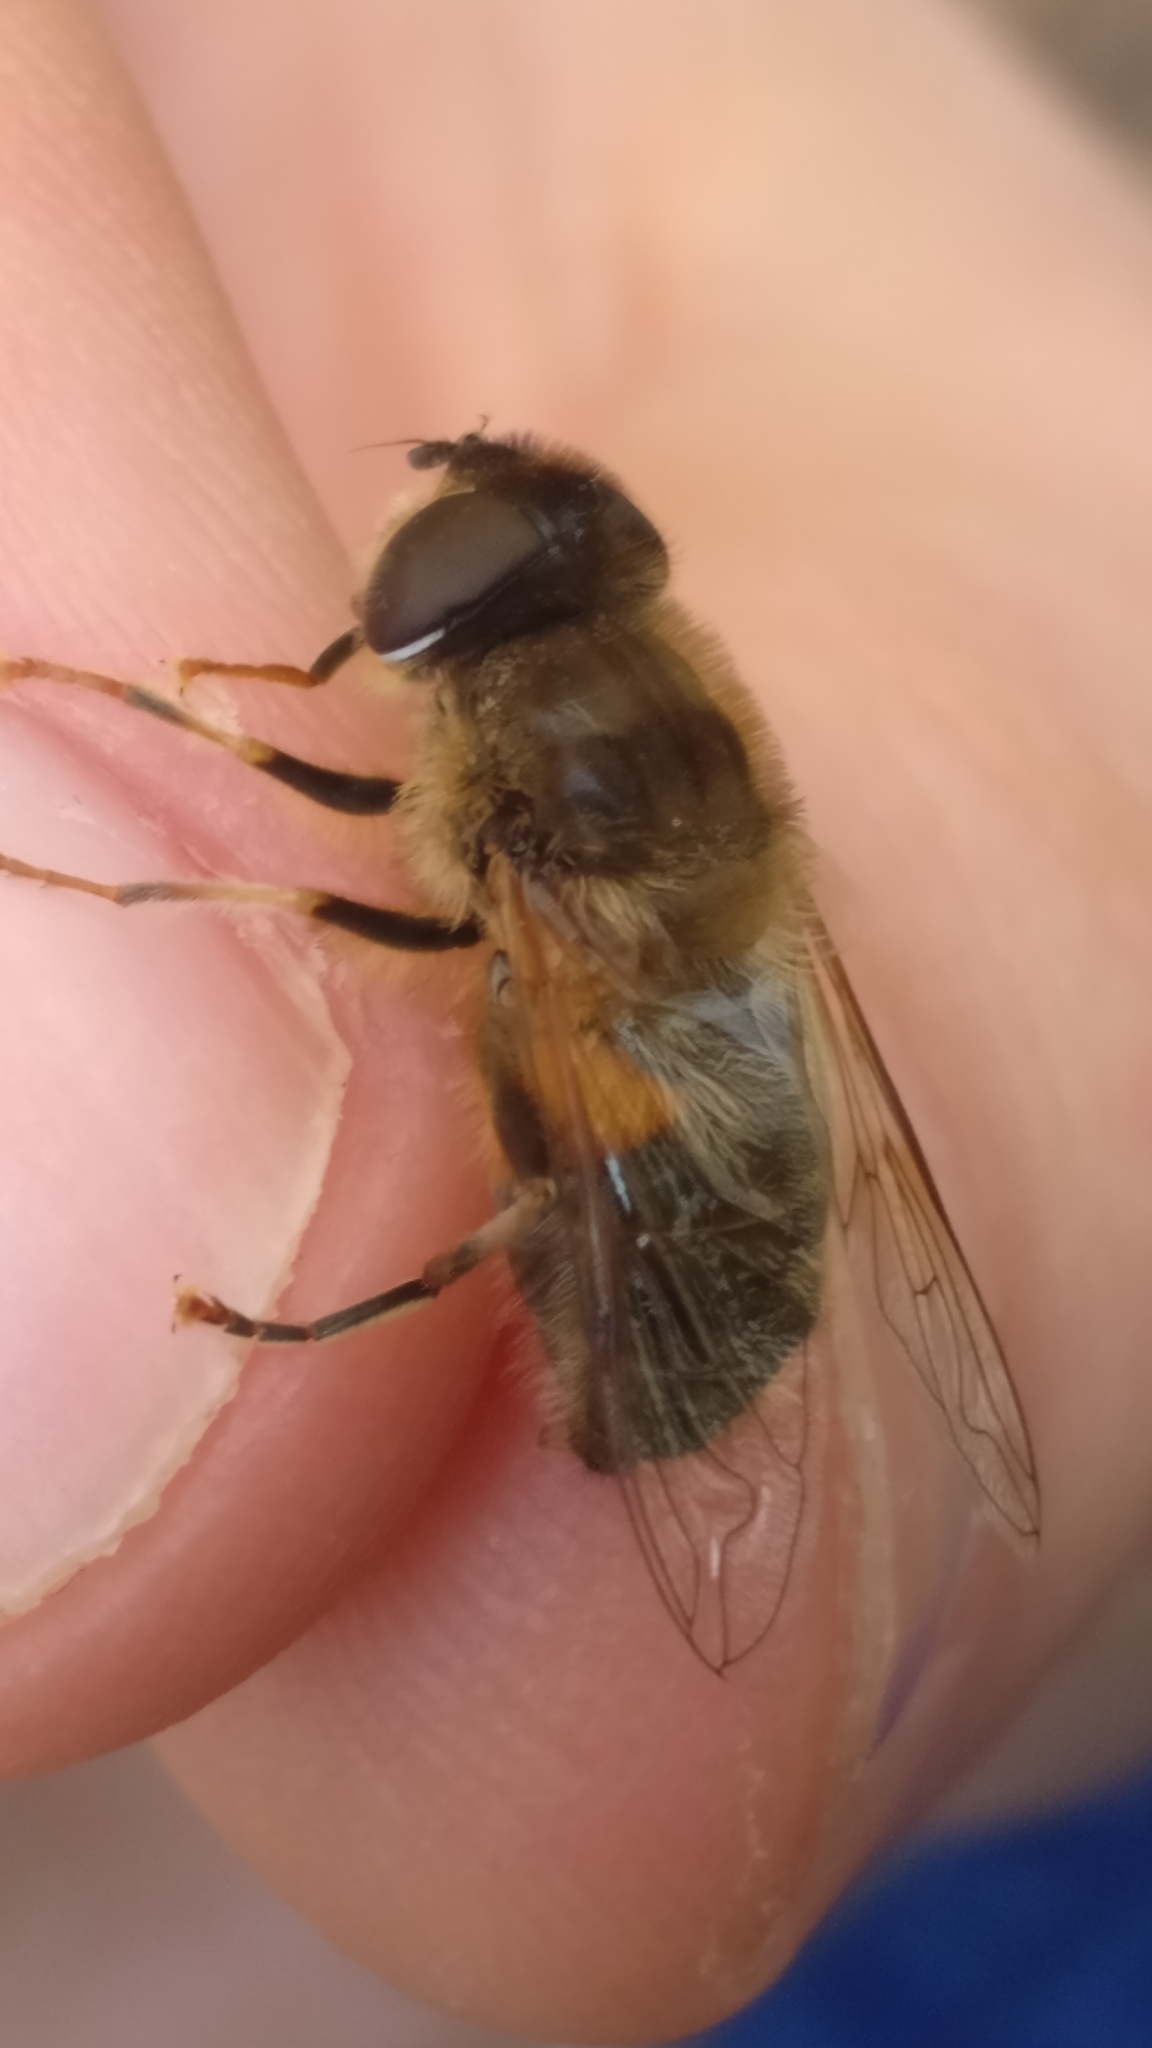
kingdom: Animalia
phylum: Arthropoda
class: Insecta
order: Diptera
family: Syrphidae
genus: Eristalis
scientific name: Eristalis pertinax
